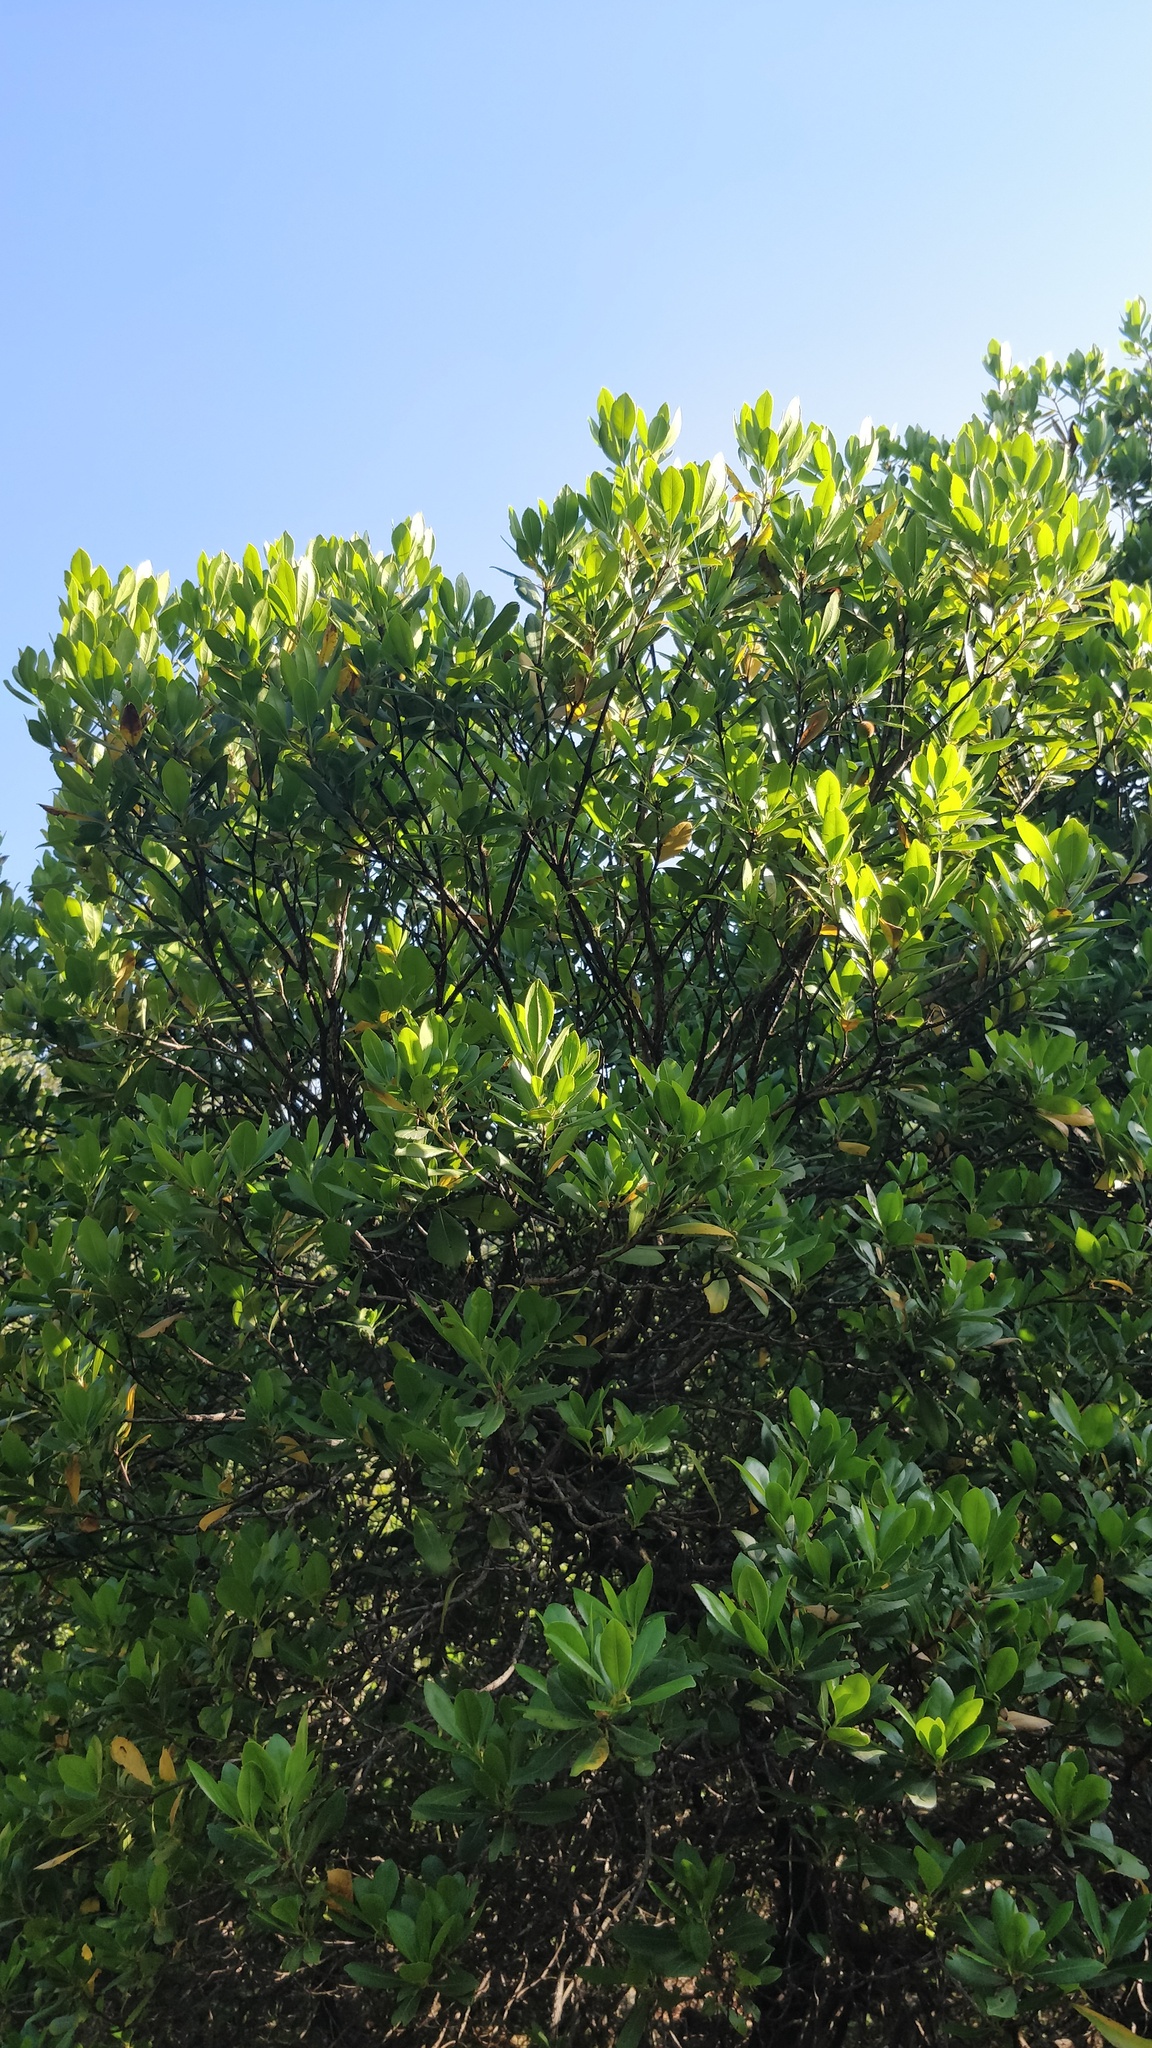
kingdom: Plantae
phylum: Tracheophyta
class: Magnoliopsida
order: Ericales
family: Ericaceae
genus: Arbutus
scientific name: Arbutus unedo
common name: Strawberry-tree
